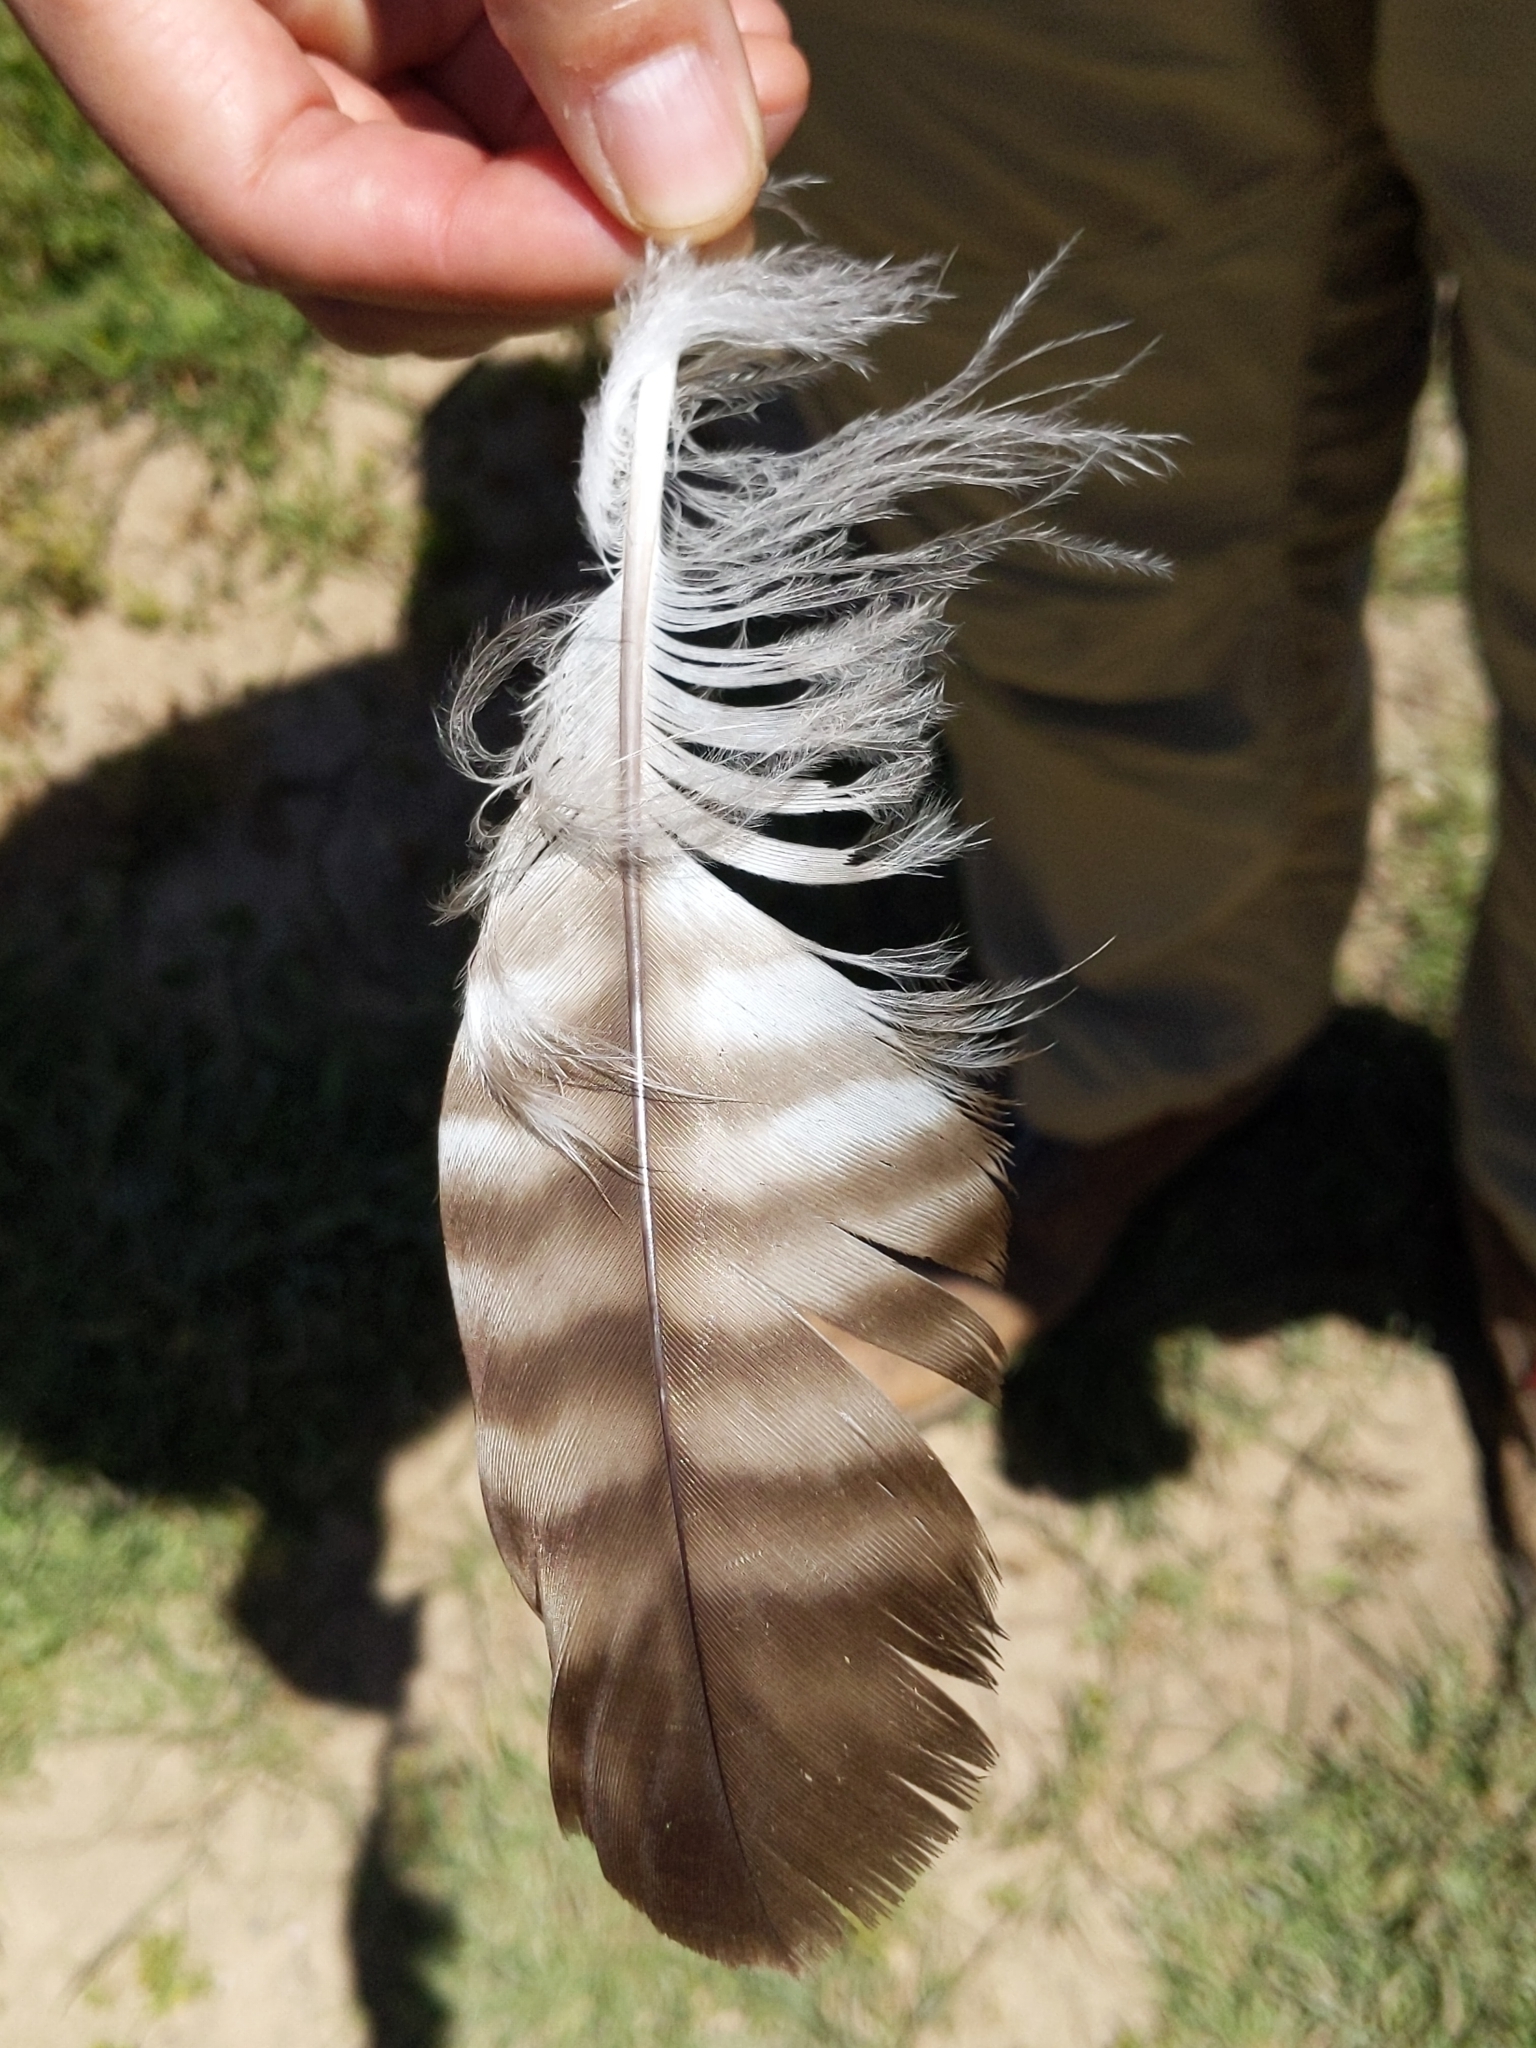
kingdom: Animalia
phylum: Chordata
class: Aves
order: Accipitriformes
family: Accipitridae
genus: Buteo
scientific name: Buteo jamaicensis
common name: Red-tailed hawk
